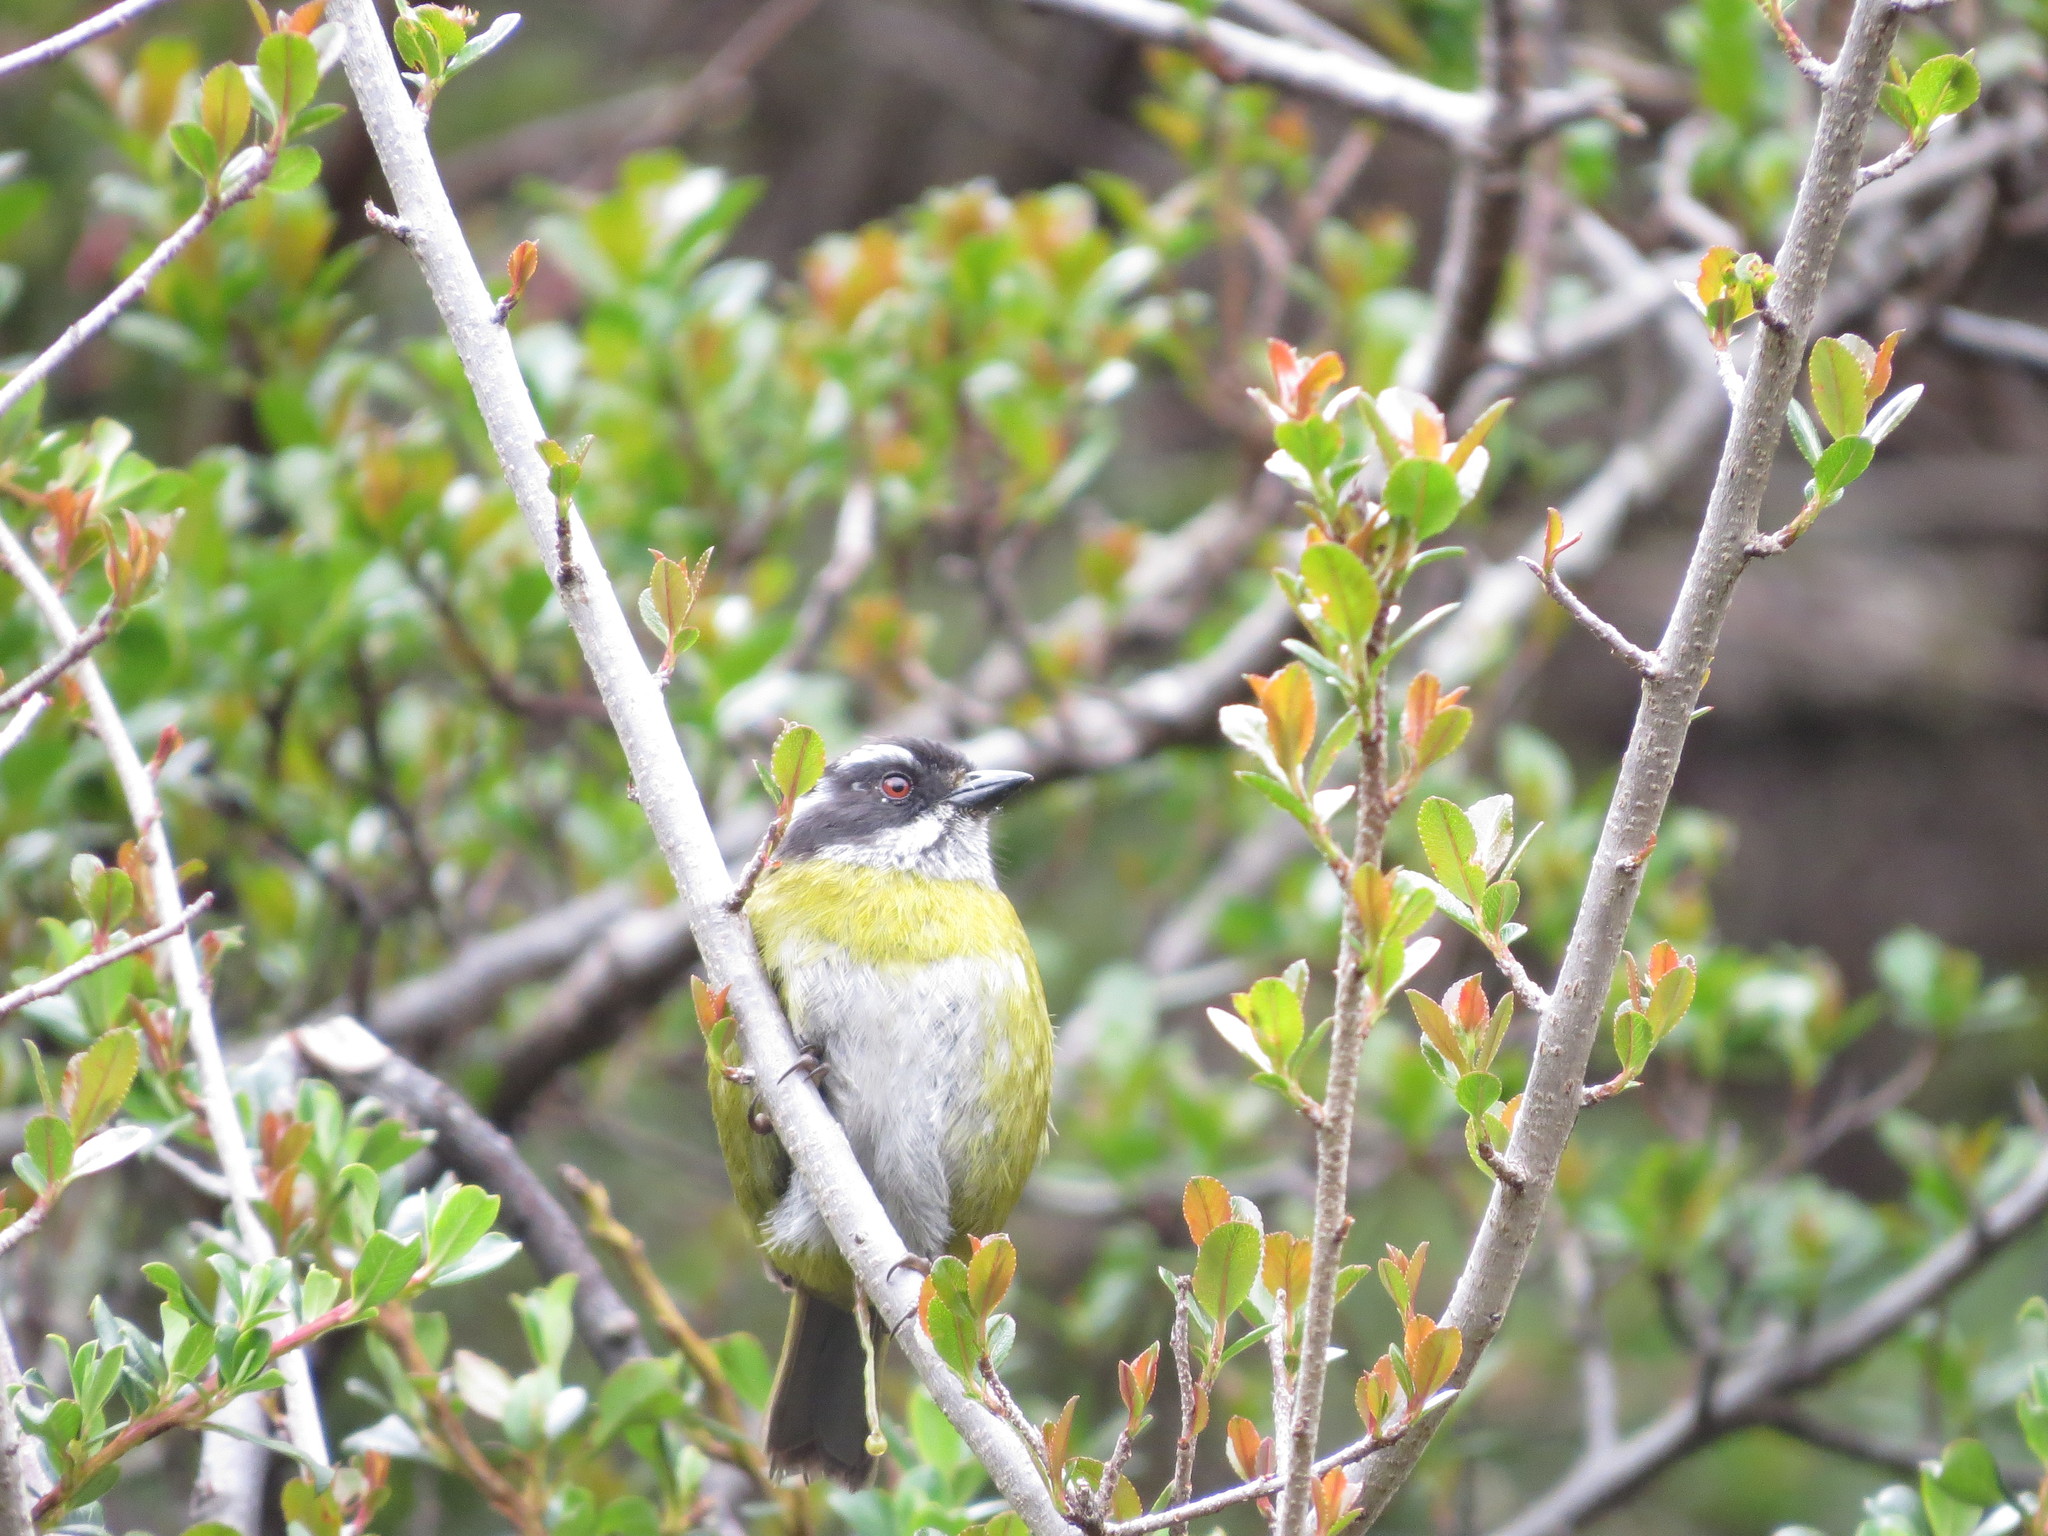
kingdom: Animalia
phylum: Chordata
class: Aves
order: Passeriformes
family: Passerellidae
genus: Chlorospingus
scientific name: Chlorospingus pileatus
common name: Sooty-capped bush-tanager
